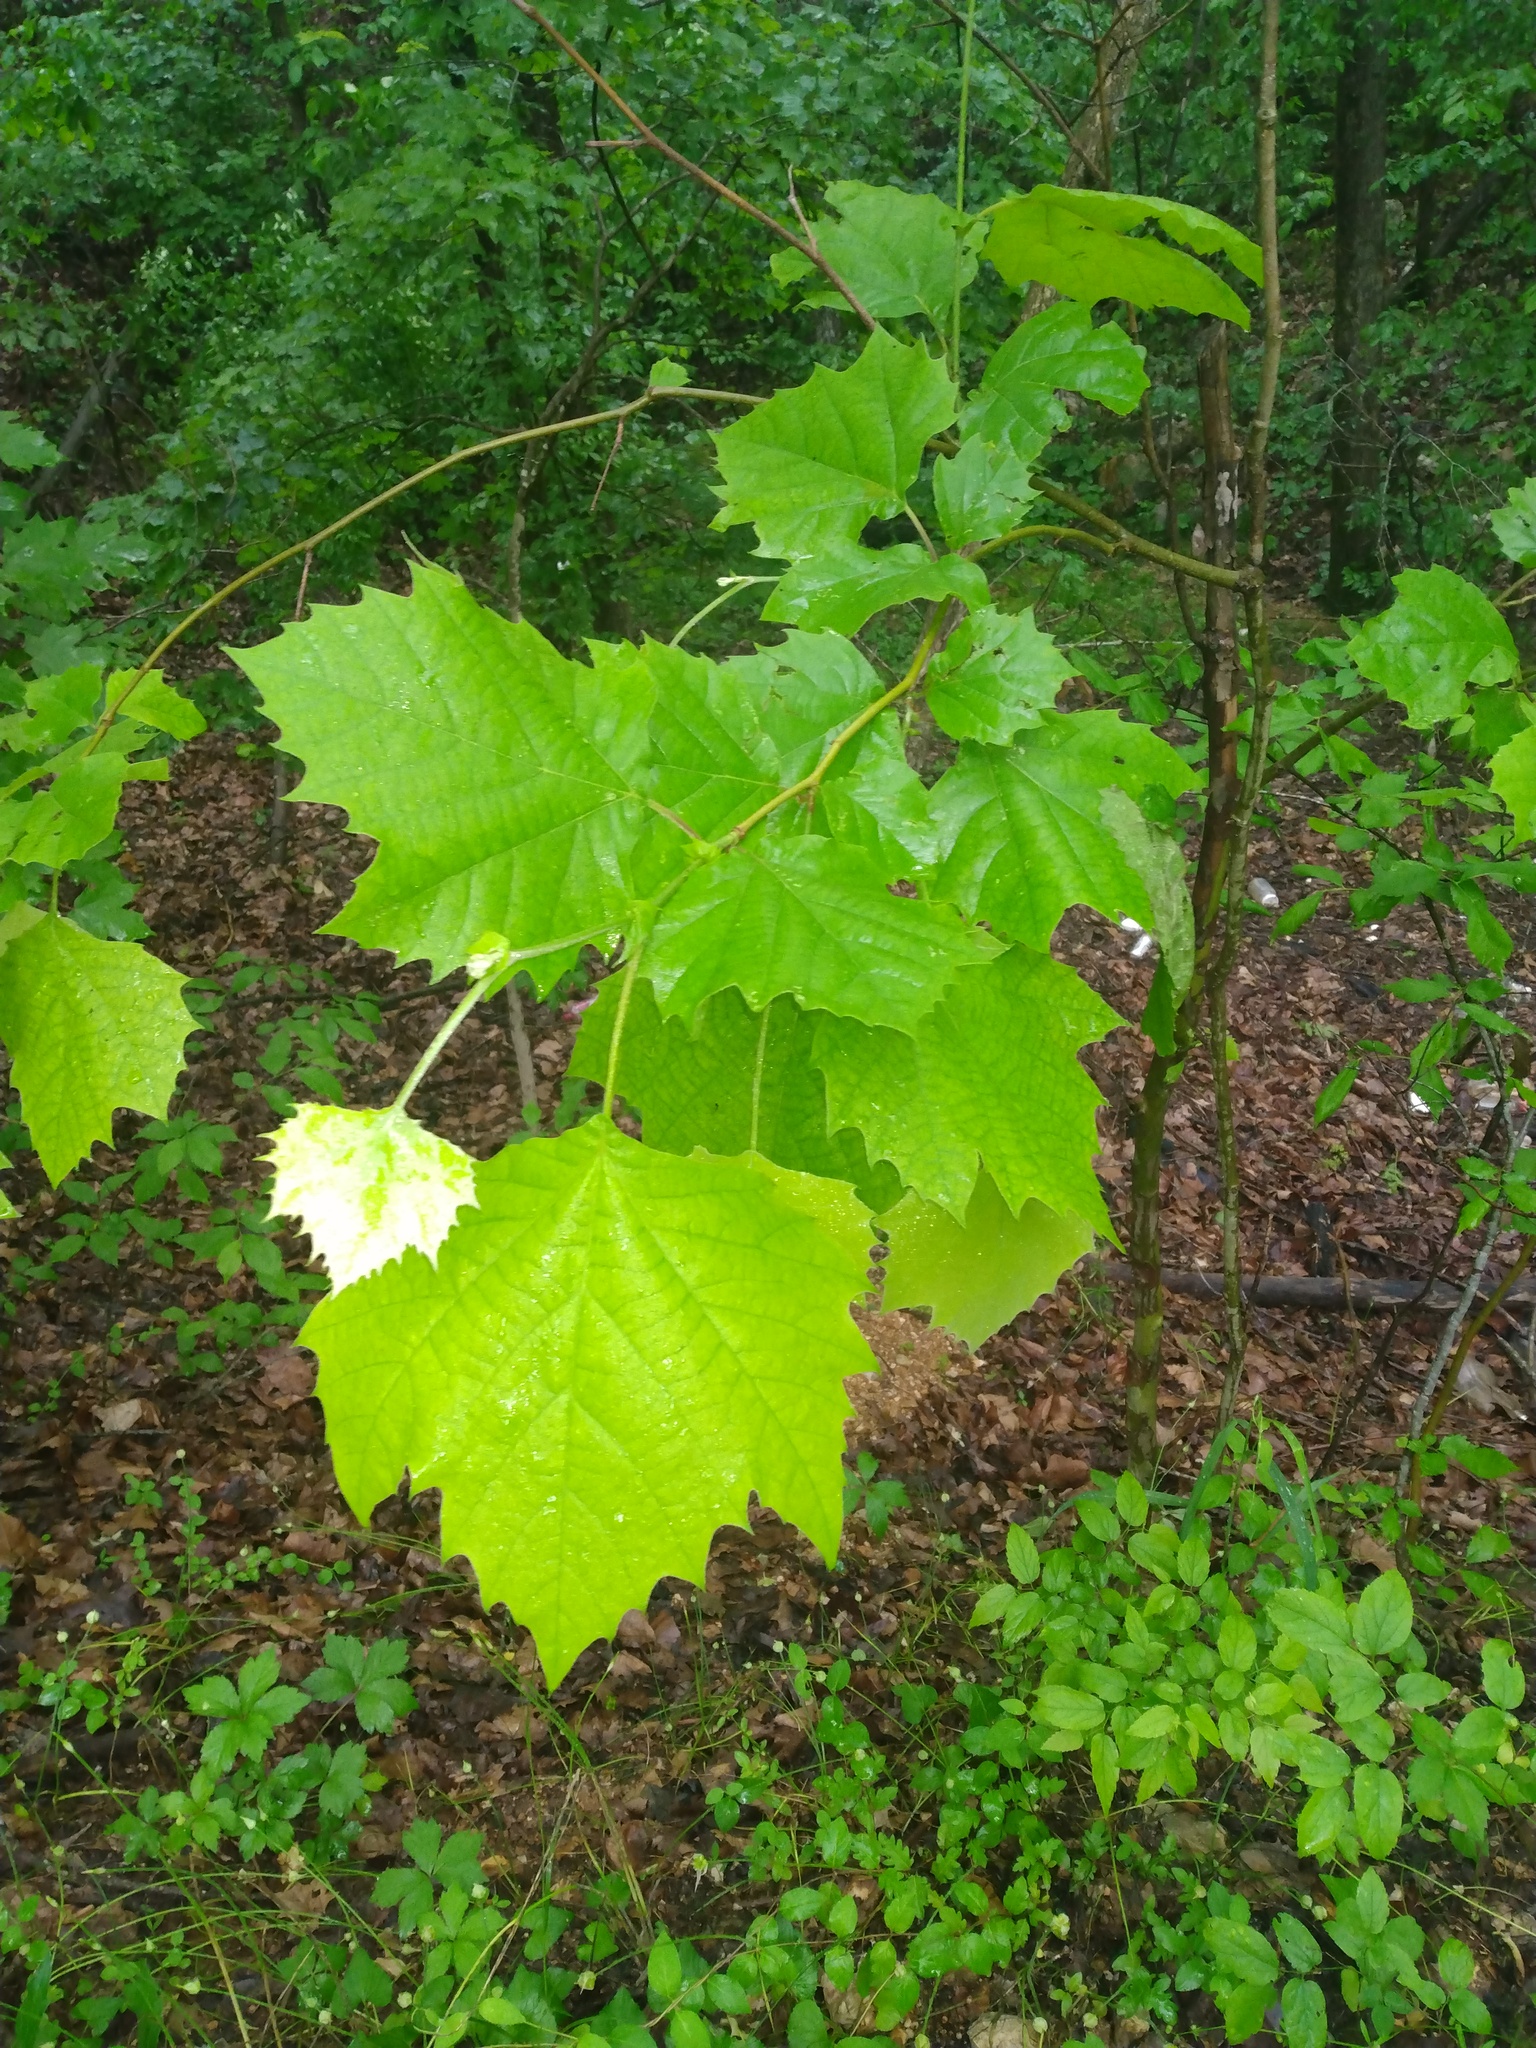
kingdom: Plantae
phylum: Tracheophyta
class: Magnoliopsida
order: Proteales
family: Platanaceae
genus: Platanus
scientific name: Platanus occidentalis
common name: American sycamore
